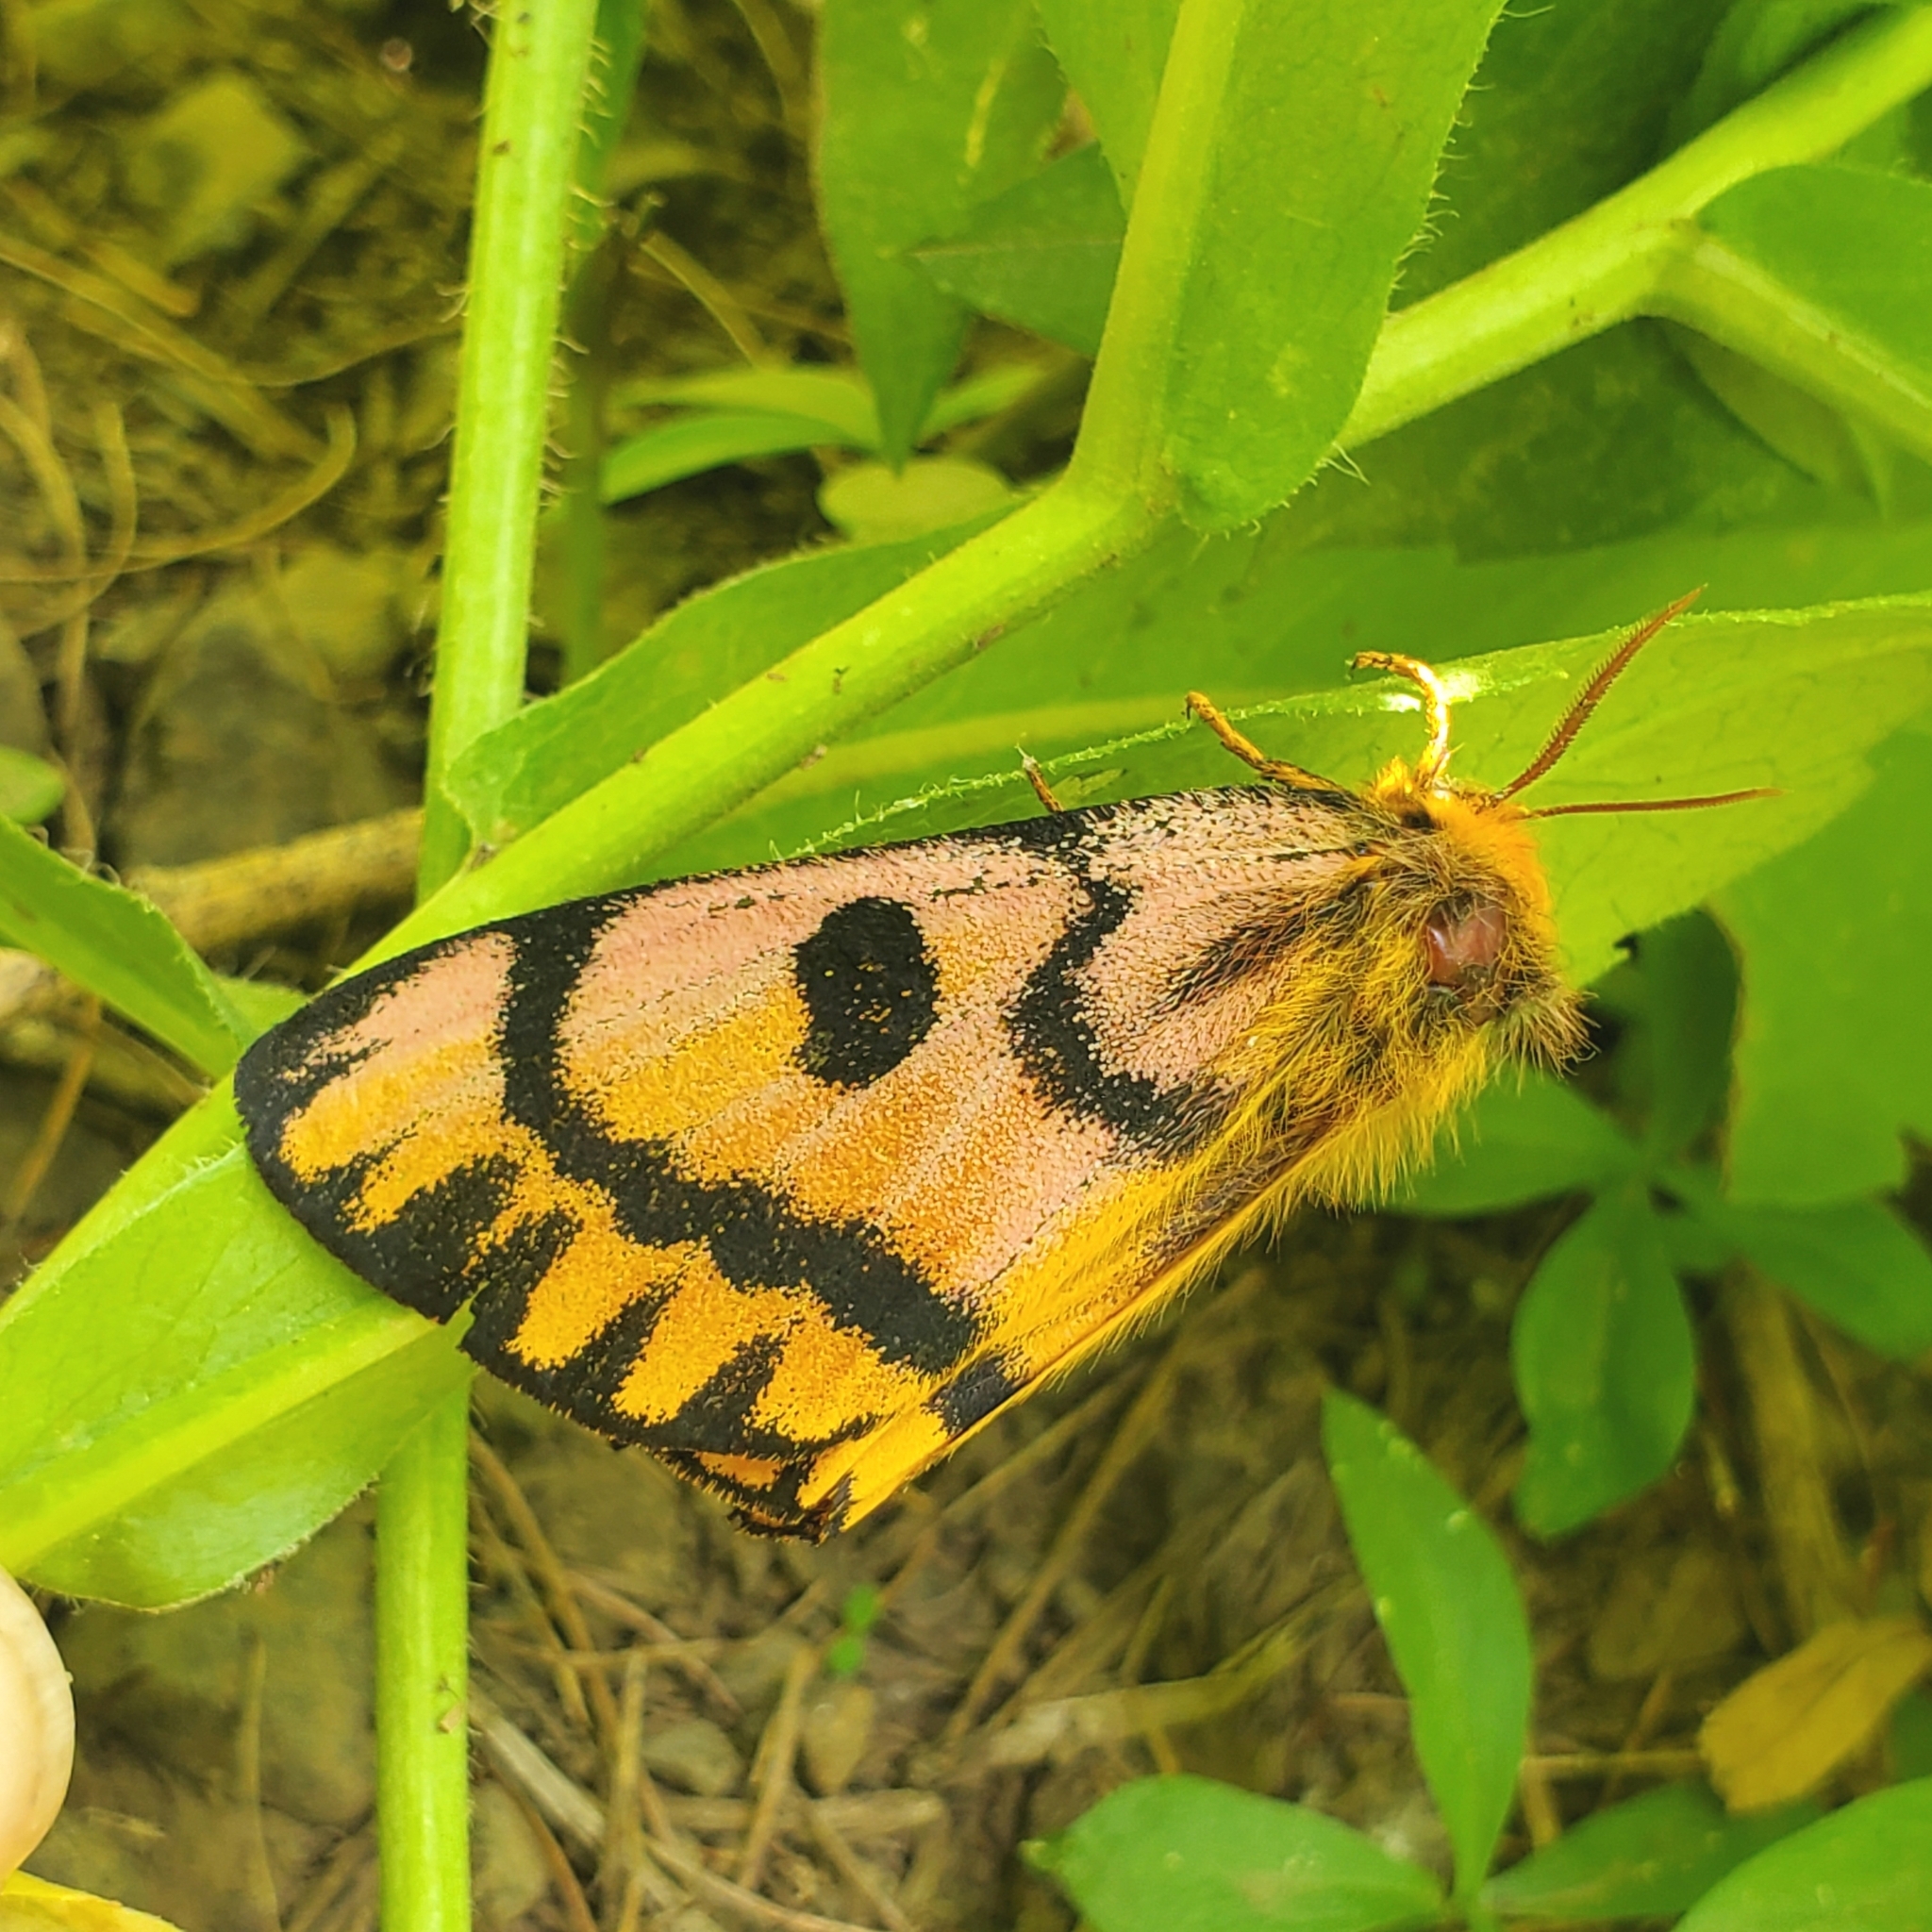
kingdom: Animalia
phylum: Arthropoda
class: Insecta
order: Lepidoptera
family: Saturniidae
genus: Hemileuca
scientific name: Hemileuca eglanterina
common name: Western sheepmoth
